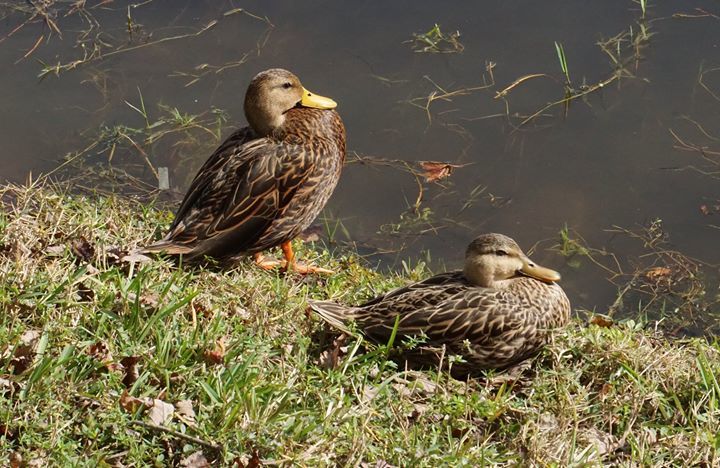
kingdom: Animalia
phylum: Chordata
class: Aves
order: Anseriformes
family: Anatidae
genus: Anas
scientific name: Anas fulvigula
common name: Mottled duck
